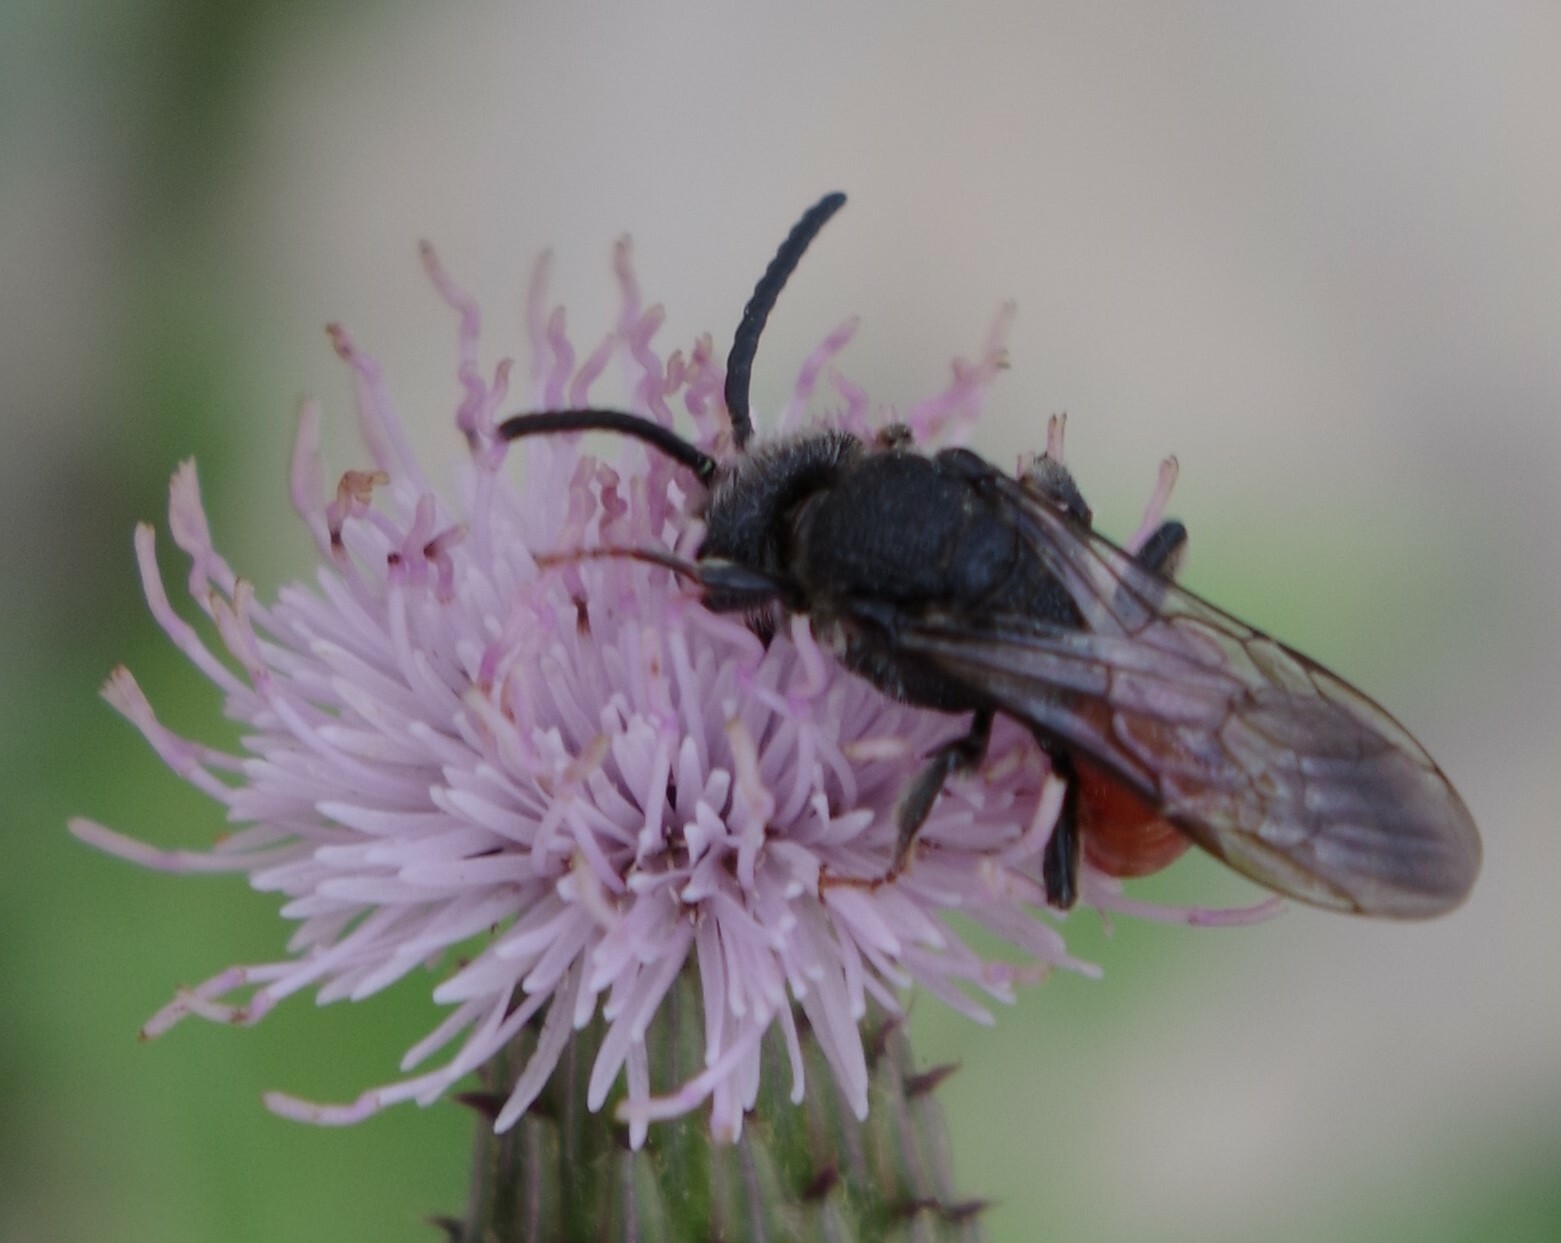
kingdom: Animalia
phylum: Arthropoda
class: Insecta
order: Hymenoptera
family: Halictidae
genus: Sphecodes
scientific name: Sphecodes albilabris
